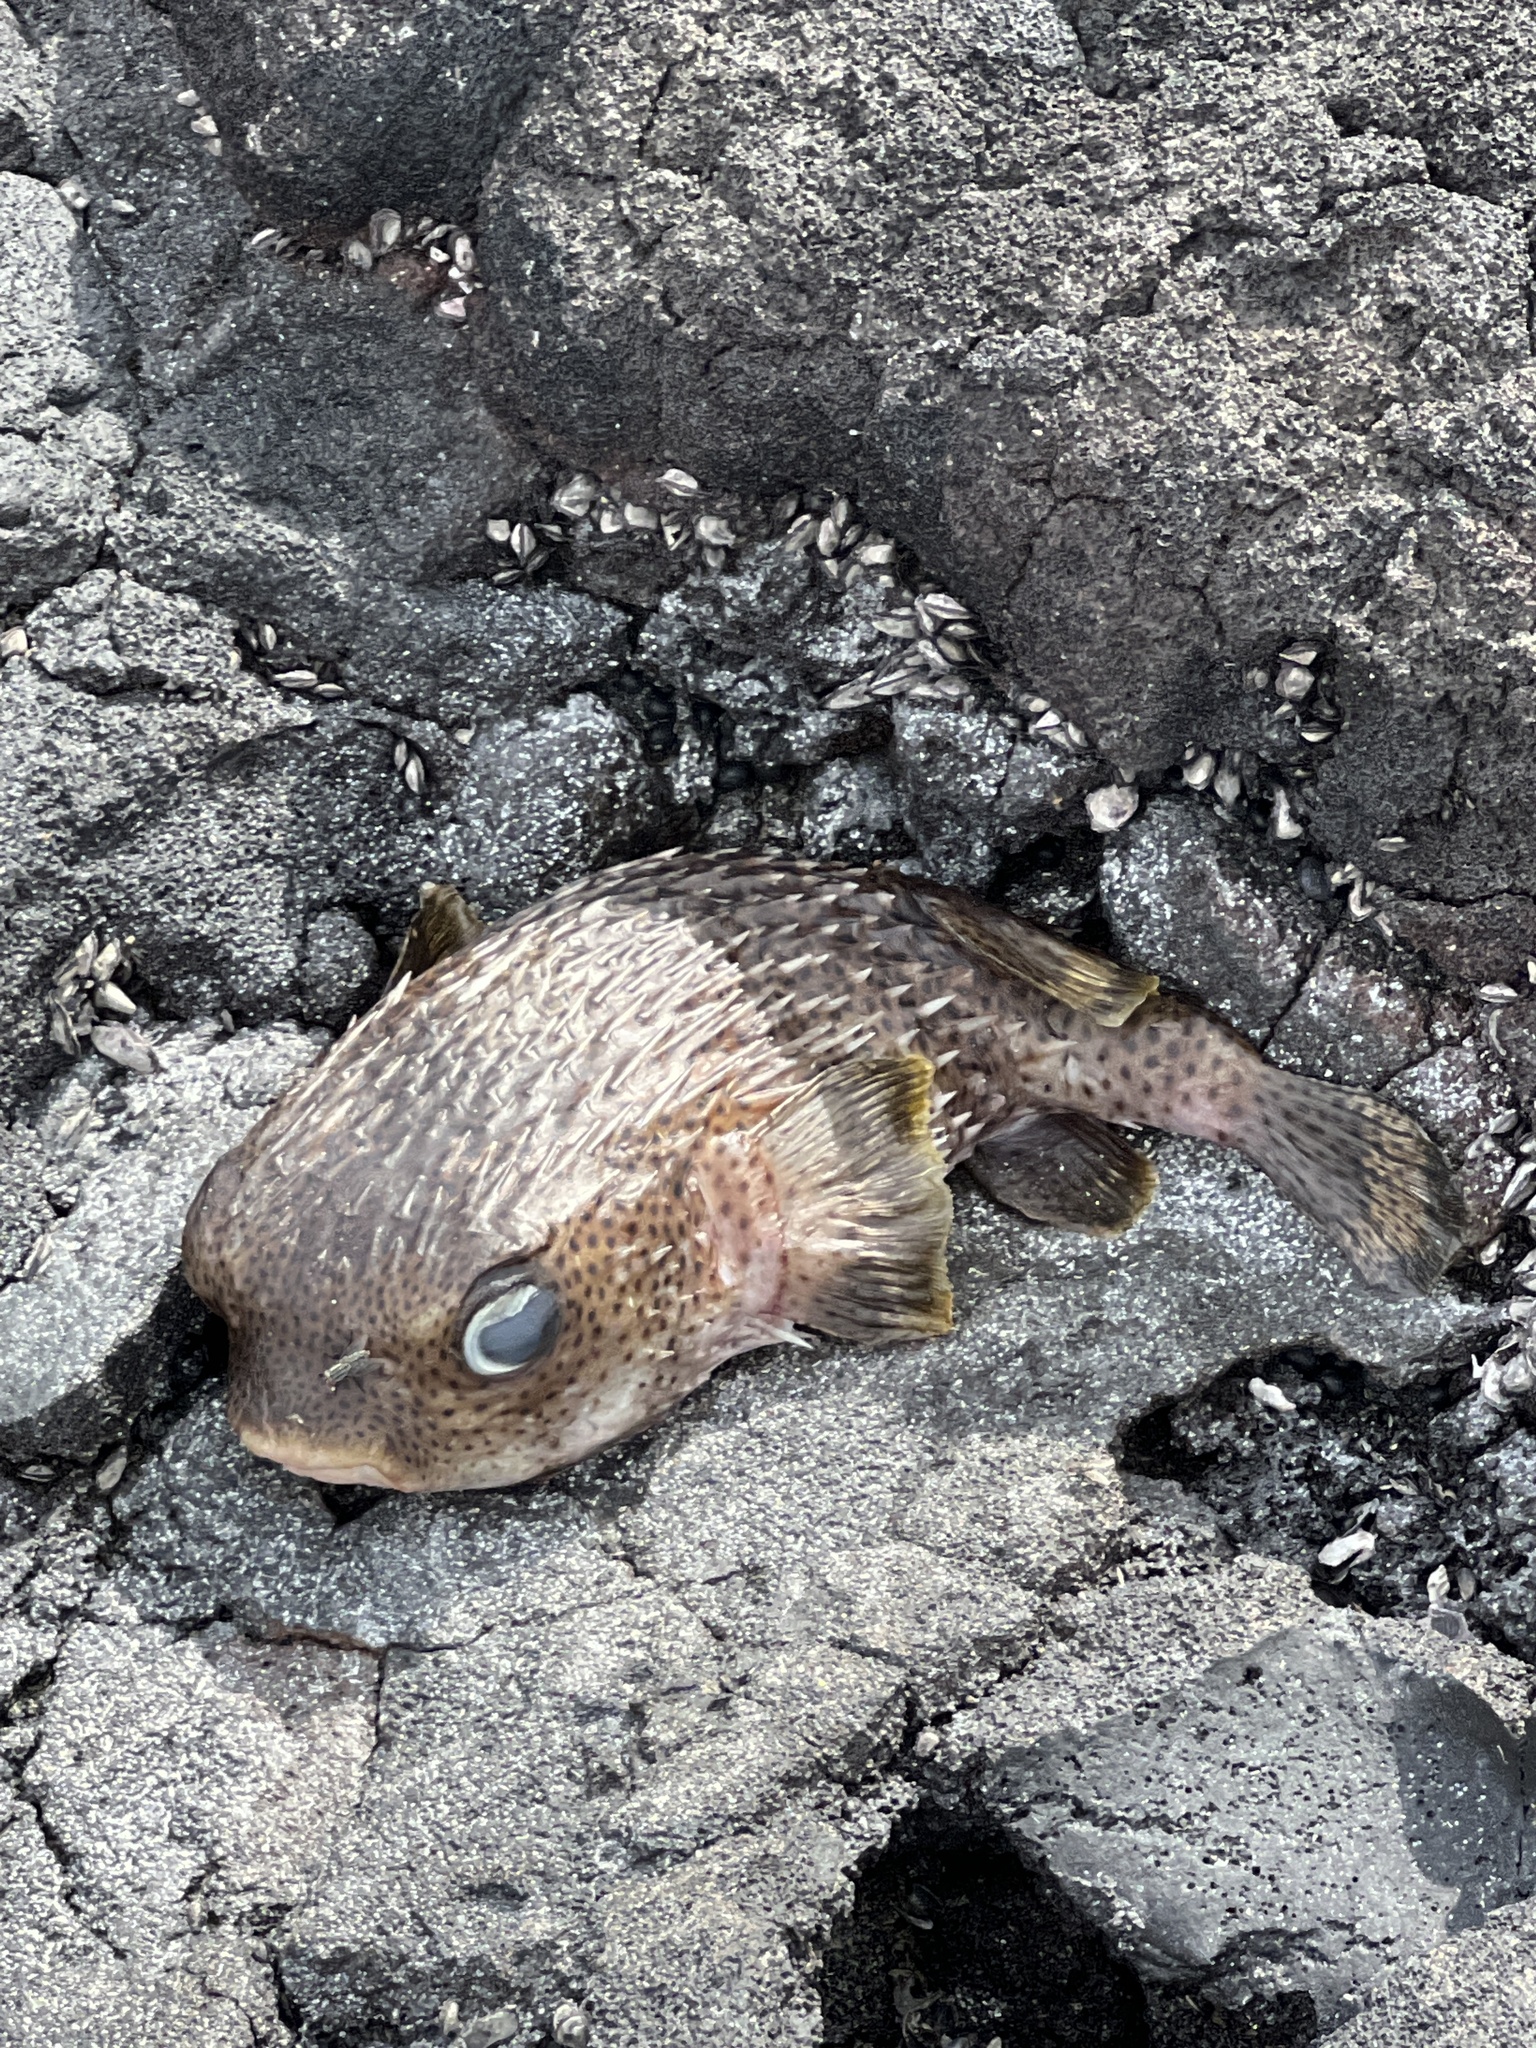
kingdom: Animalia
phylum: Chordata
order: Tetraodontiformes
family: Diodontidae
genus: Diodon
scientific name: Diodon hystrix
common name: Giant porcupinefish
